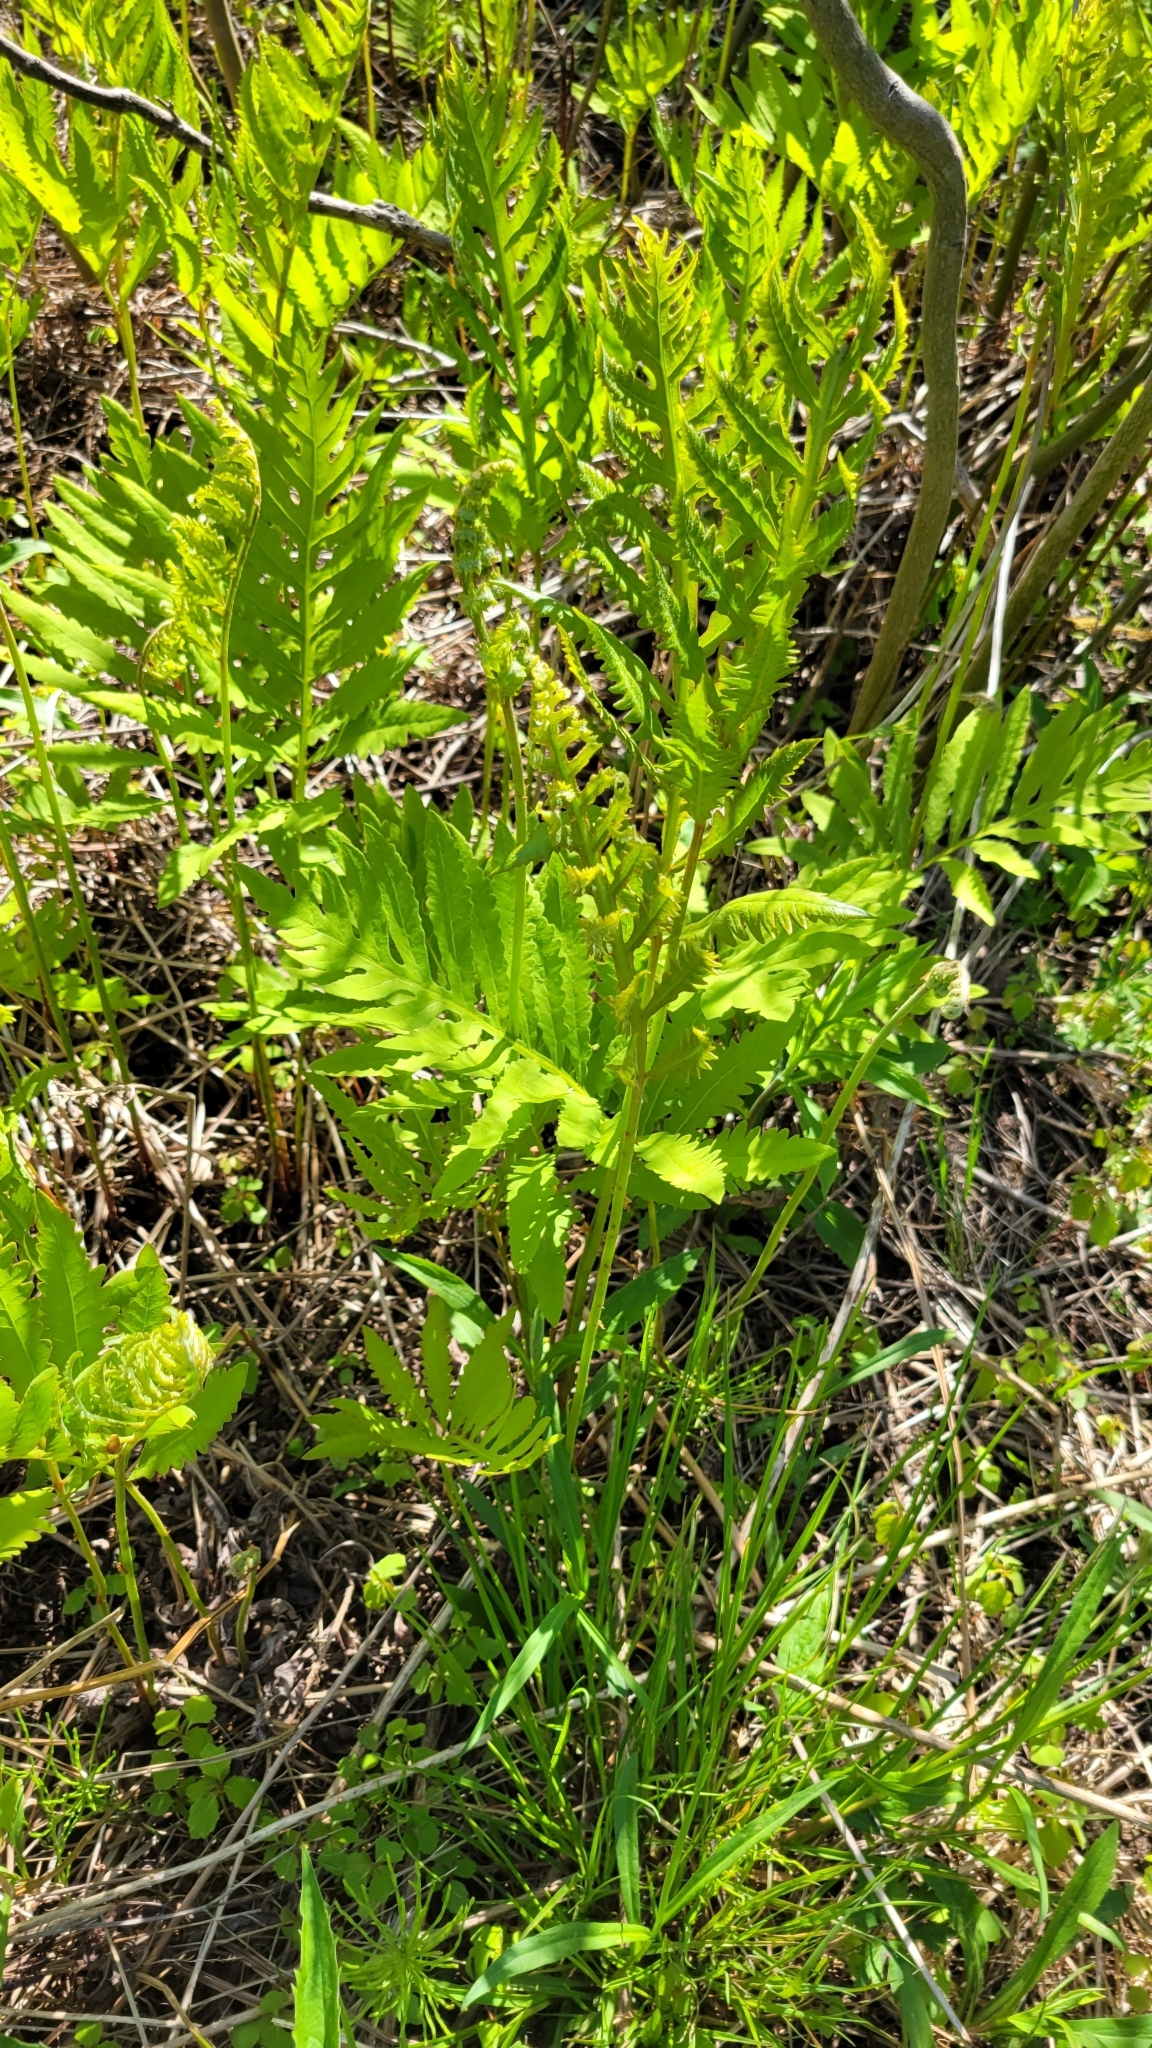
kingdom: Plantae
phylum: Tracheophyta
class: Polypodiopsida
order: Polypodiales
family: Onocleaceae
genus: Onoclea
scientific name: Onoclea sensibilis
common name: Sensitive fern
